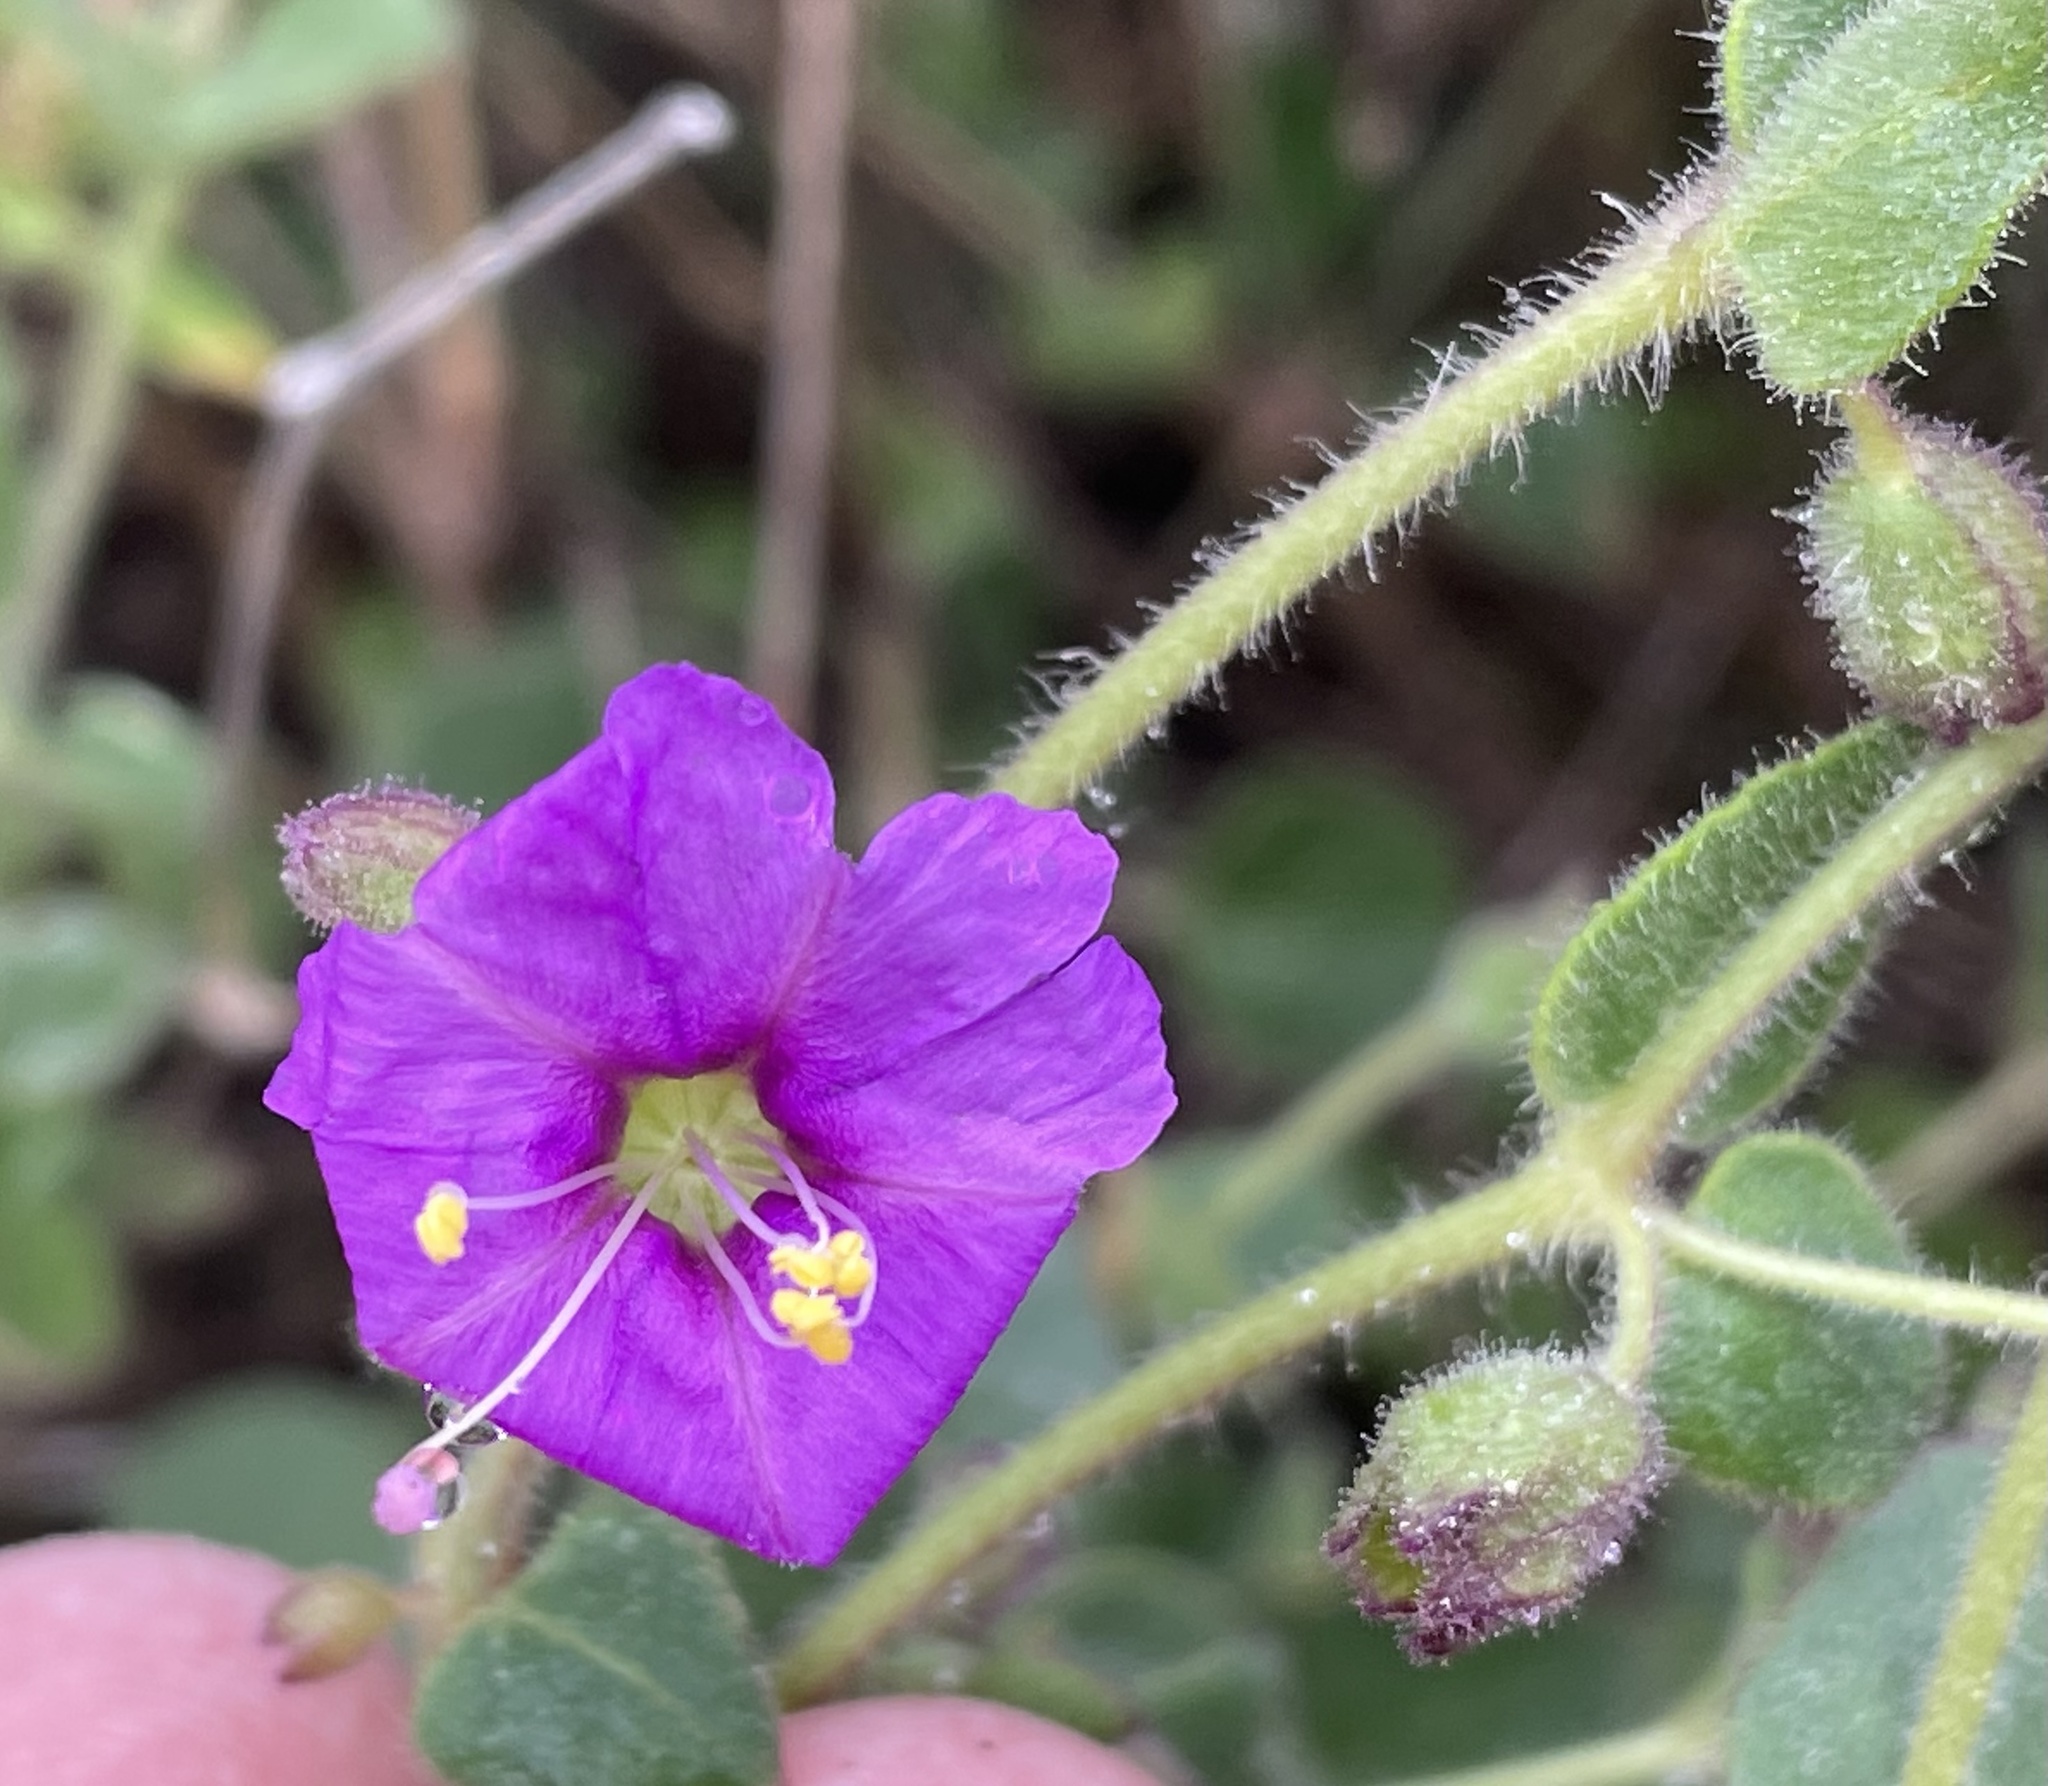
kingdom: Plantae
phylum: Tracheophyta
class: Magnoliopsida
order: Caryophyllales
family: Nyctaginaceae
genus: Mirabilis
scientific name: Mirabilis laevis
